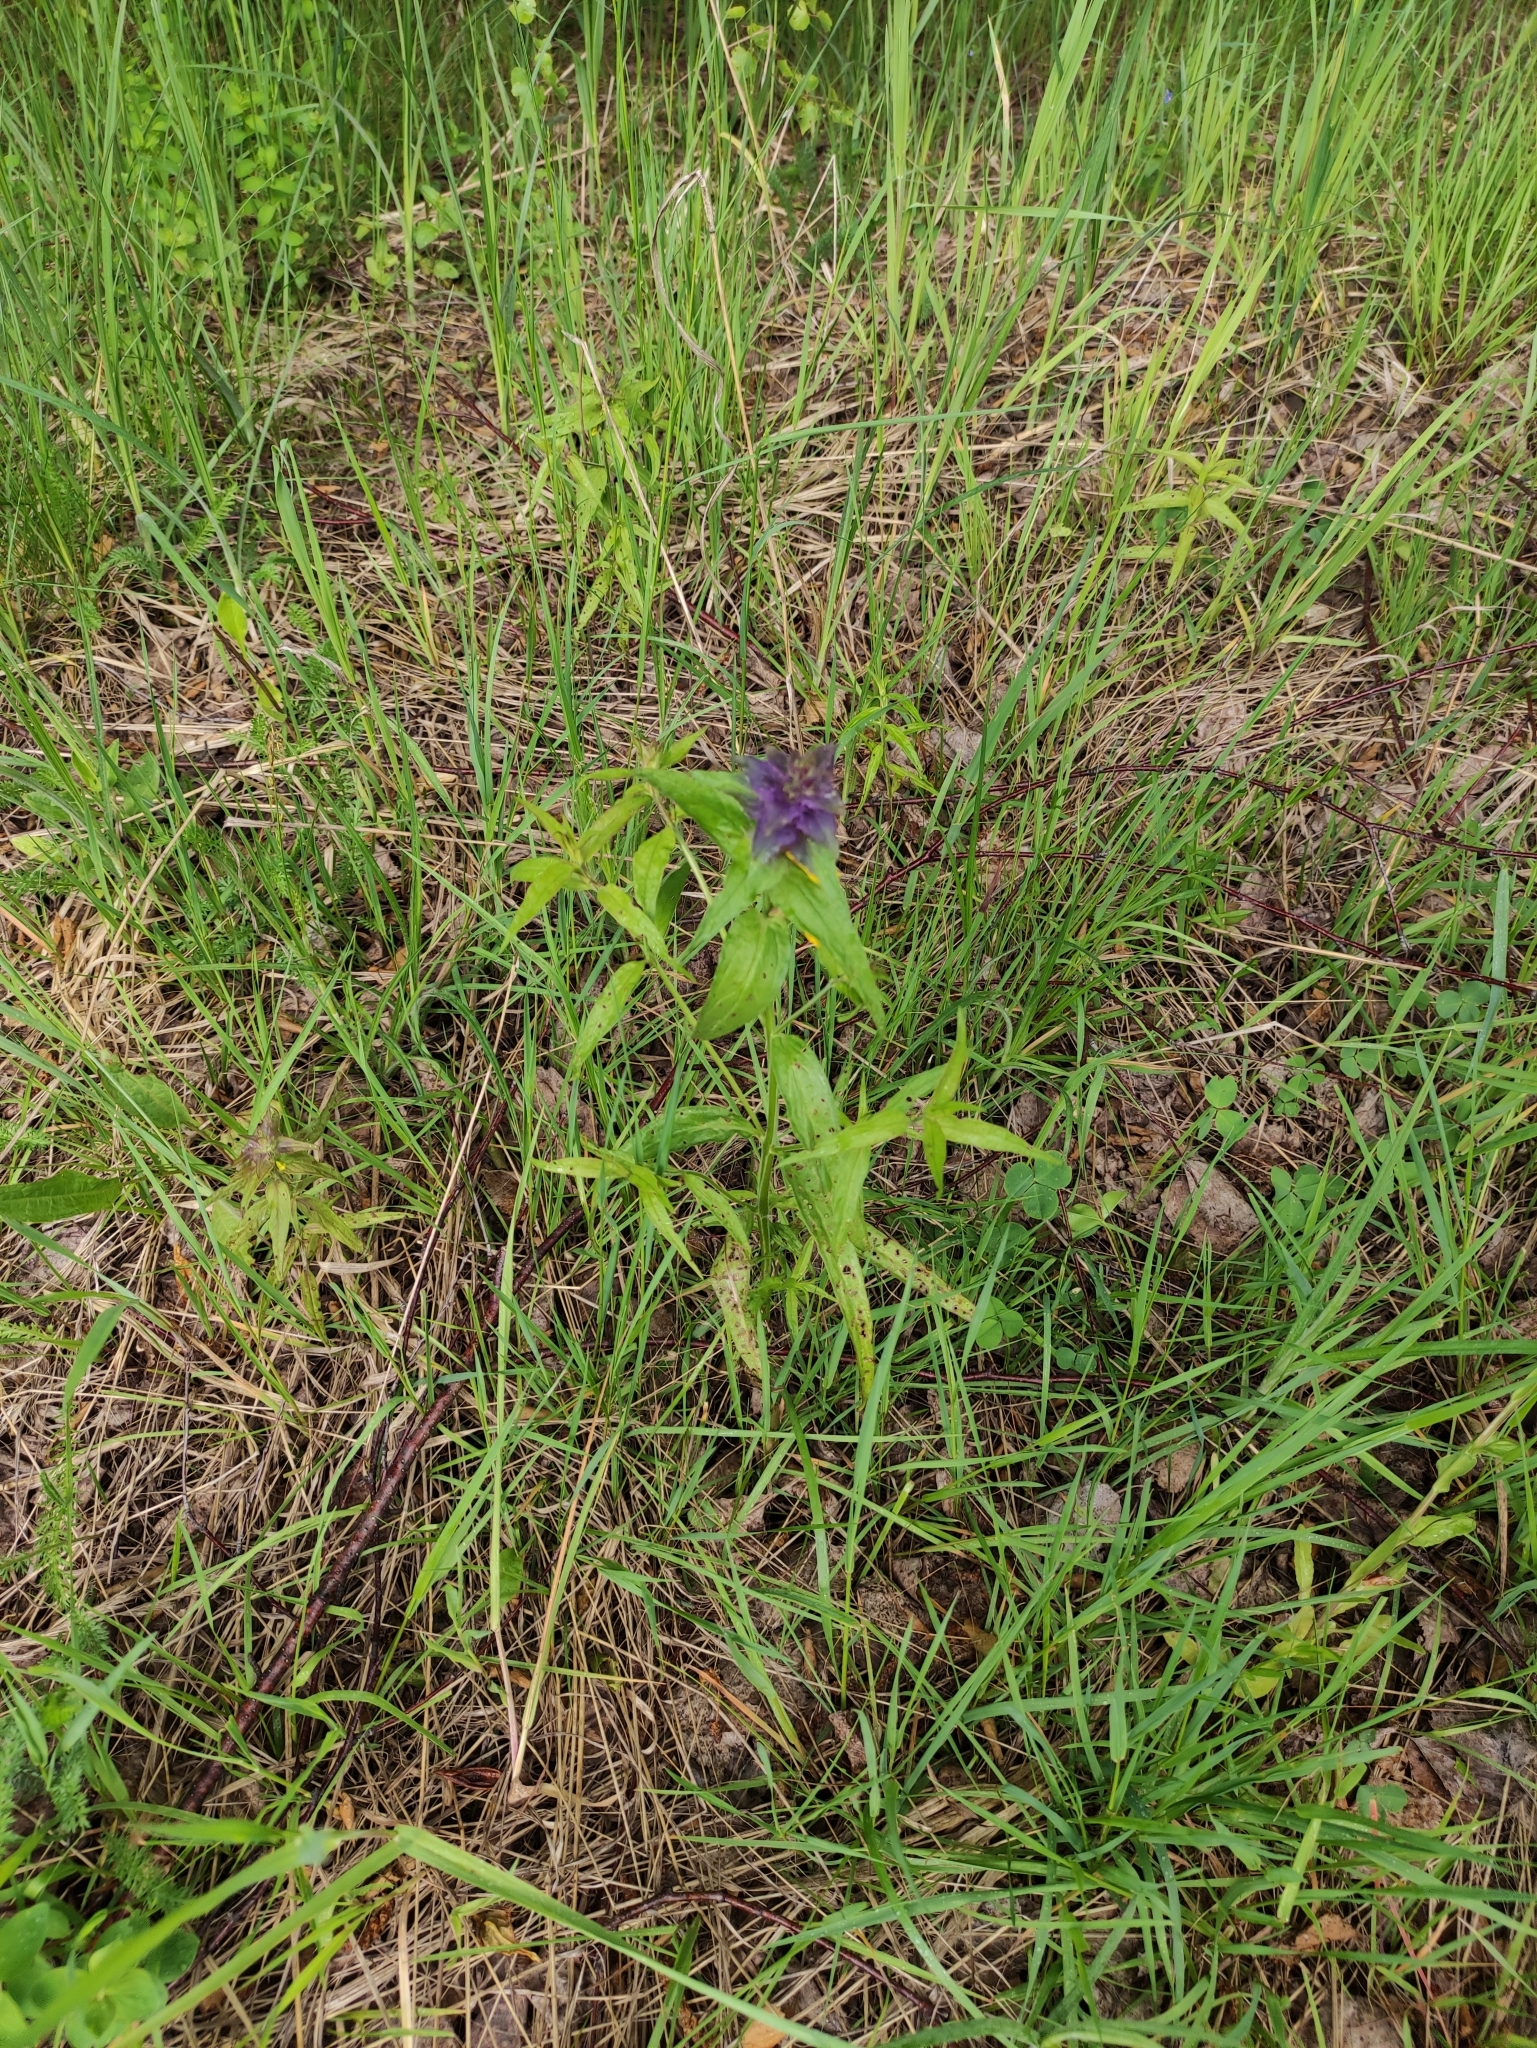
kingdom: Plantae
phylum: Tracheophyta
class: Magnoliopsida
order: Lamiales
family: Orobanchaceae
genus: Melampyrum
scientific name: Melampyrum nemorosum
